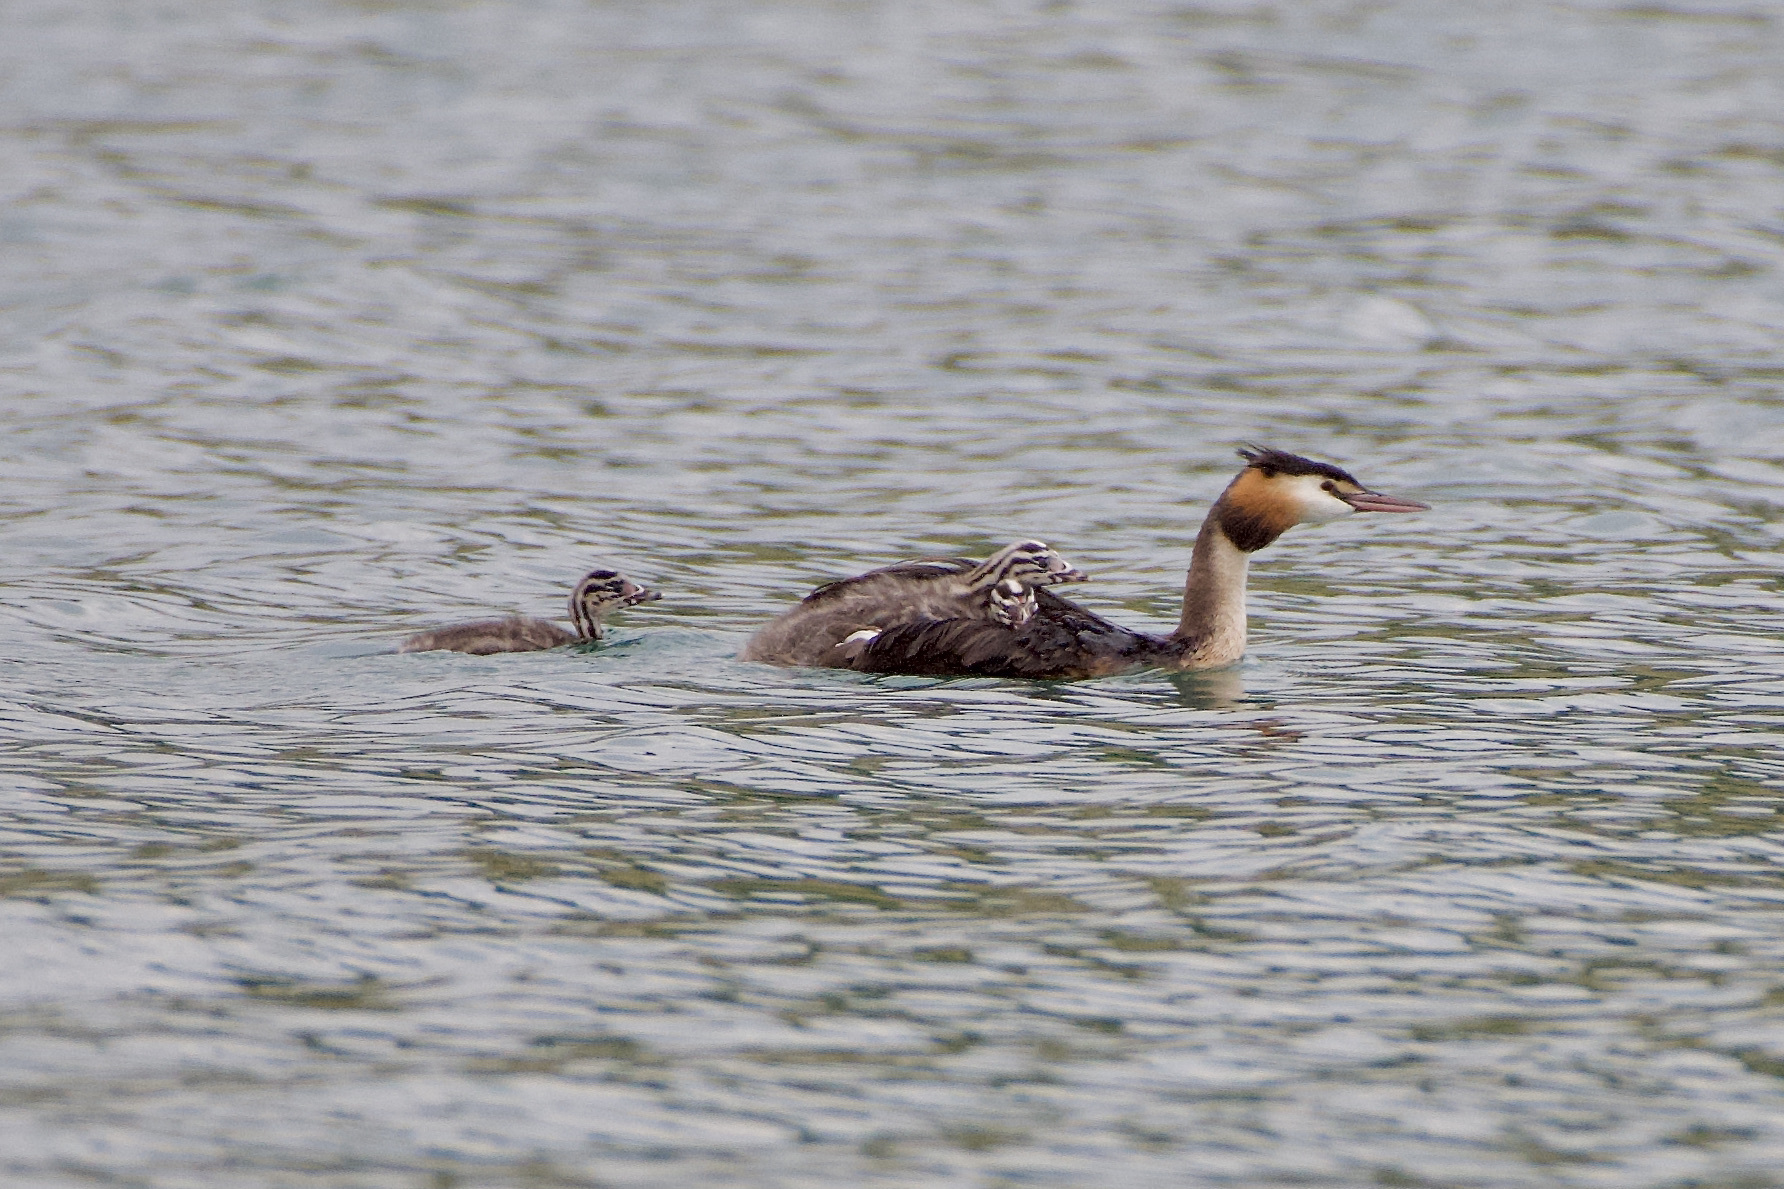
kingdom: Animalia
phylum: Chordata
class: Aves
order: Podicipediformes
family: Podicipedidae
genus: Podiceps
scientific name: Podiceps cristatus
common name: Great crested grebe
